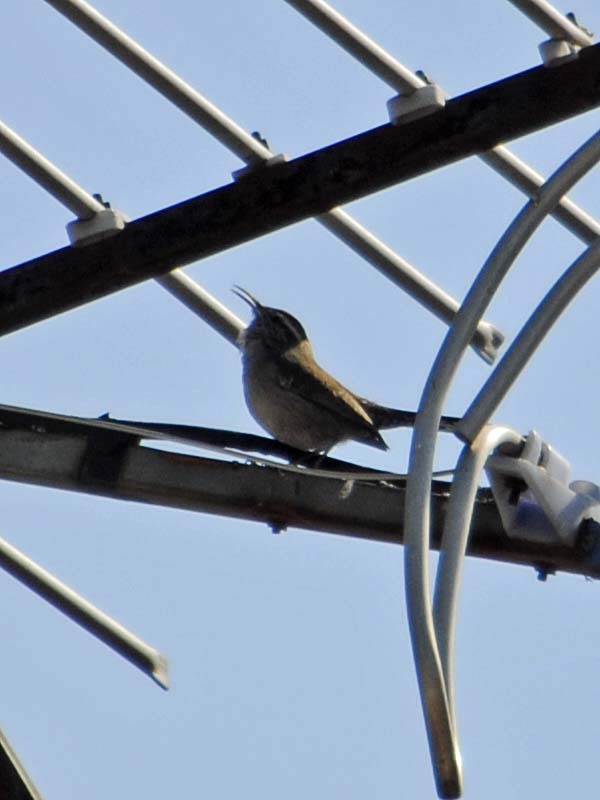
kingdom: Animalia
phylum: Chordata
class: Aves
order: Passeriformes
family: Troglodytidae
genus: Thryomanes
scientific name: Thryomanes bewickii
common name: Bewick's wren
